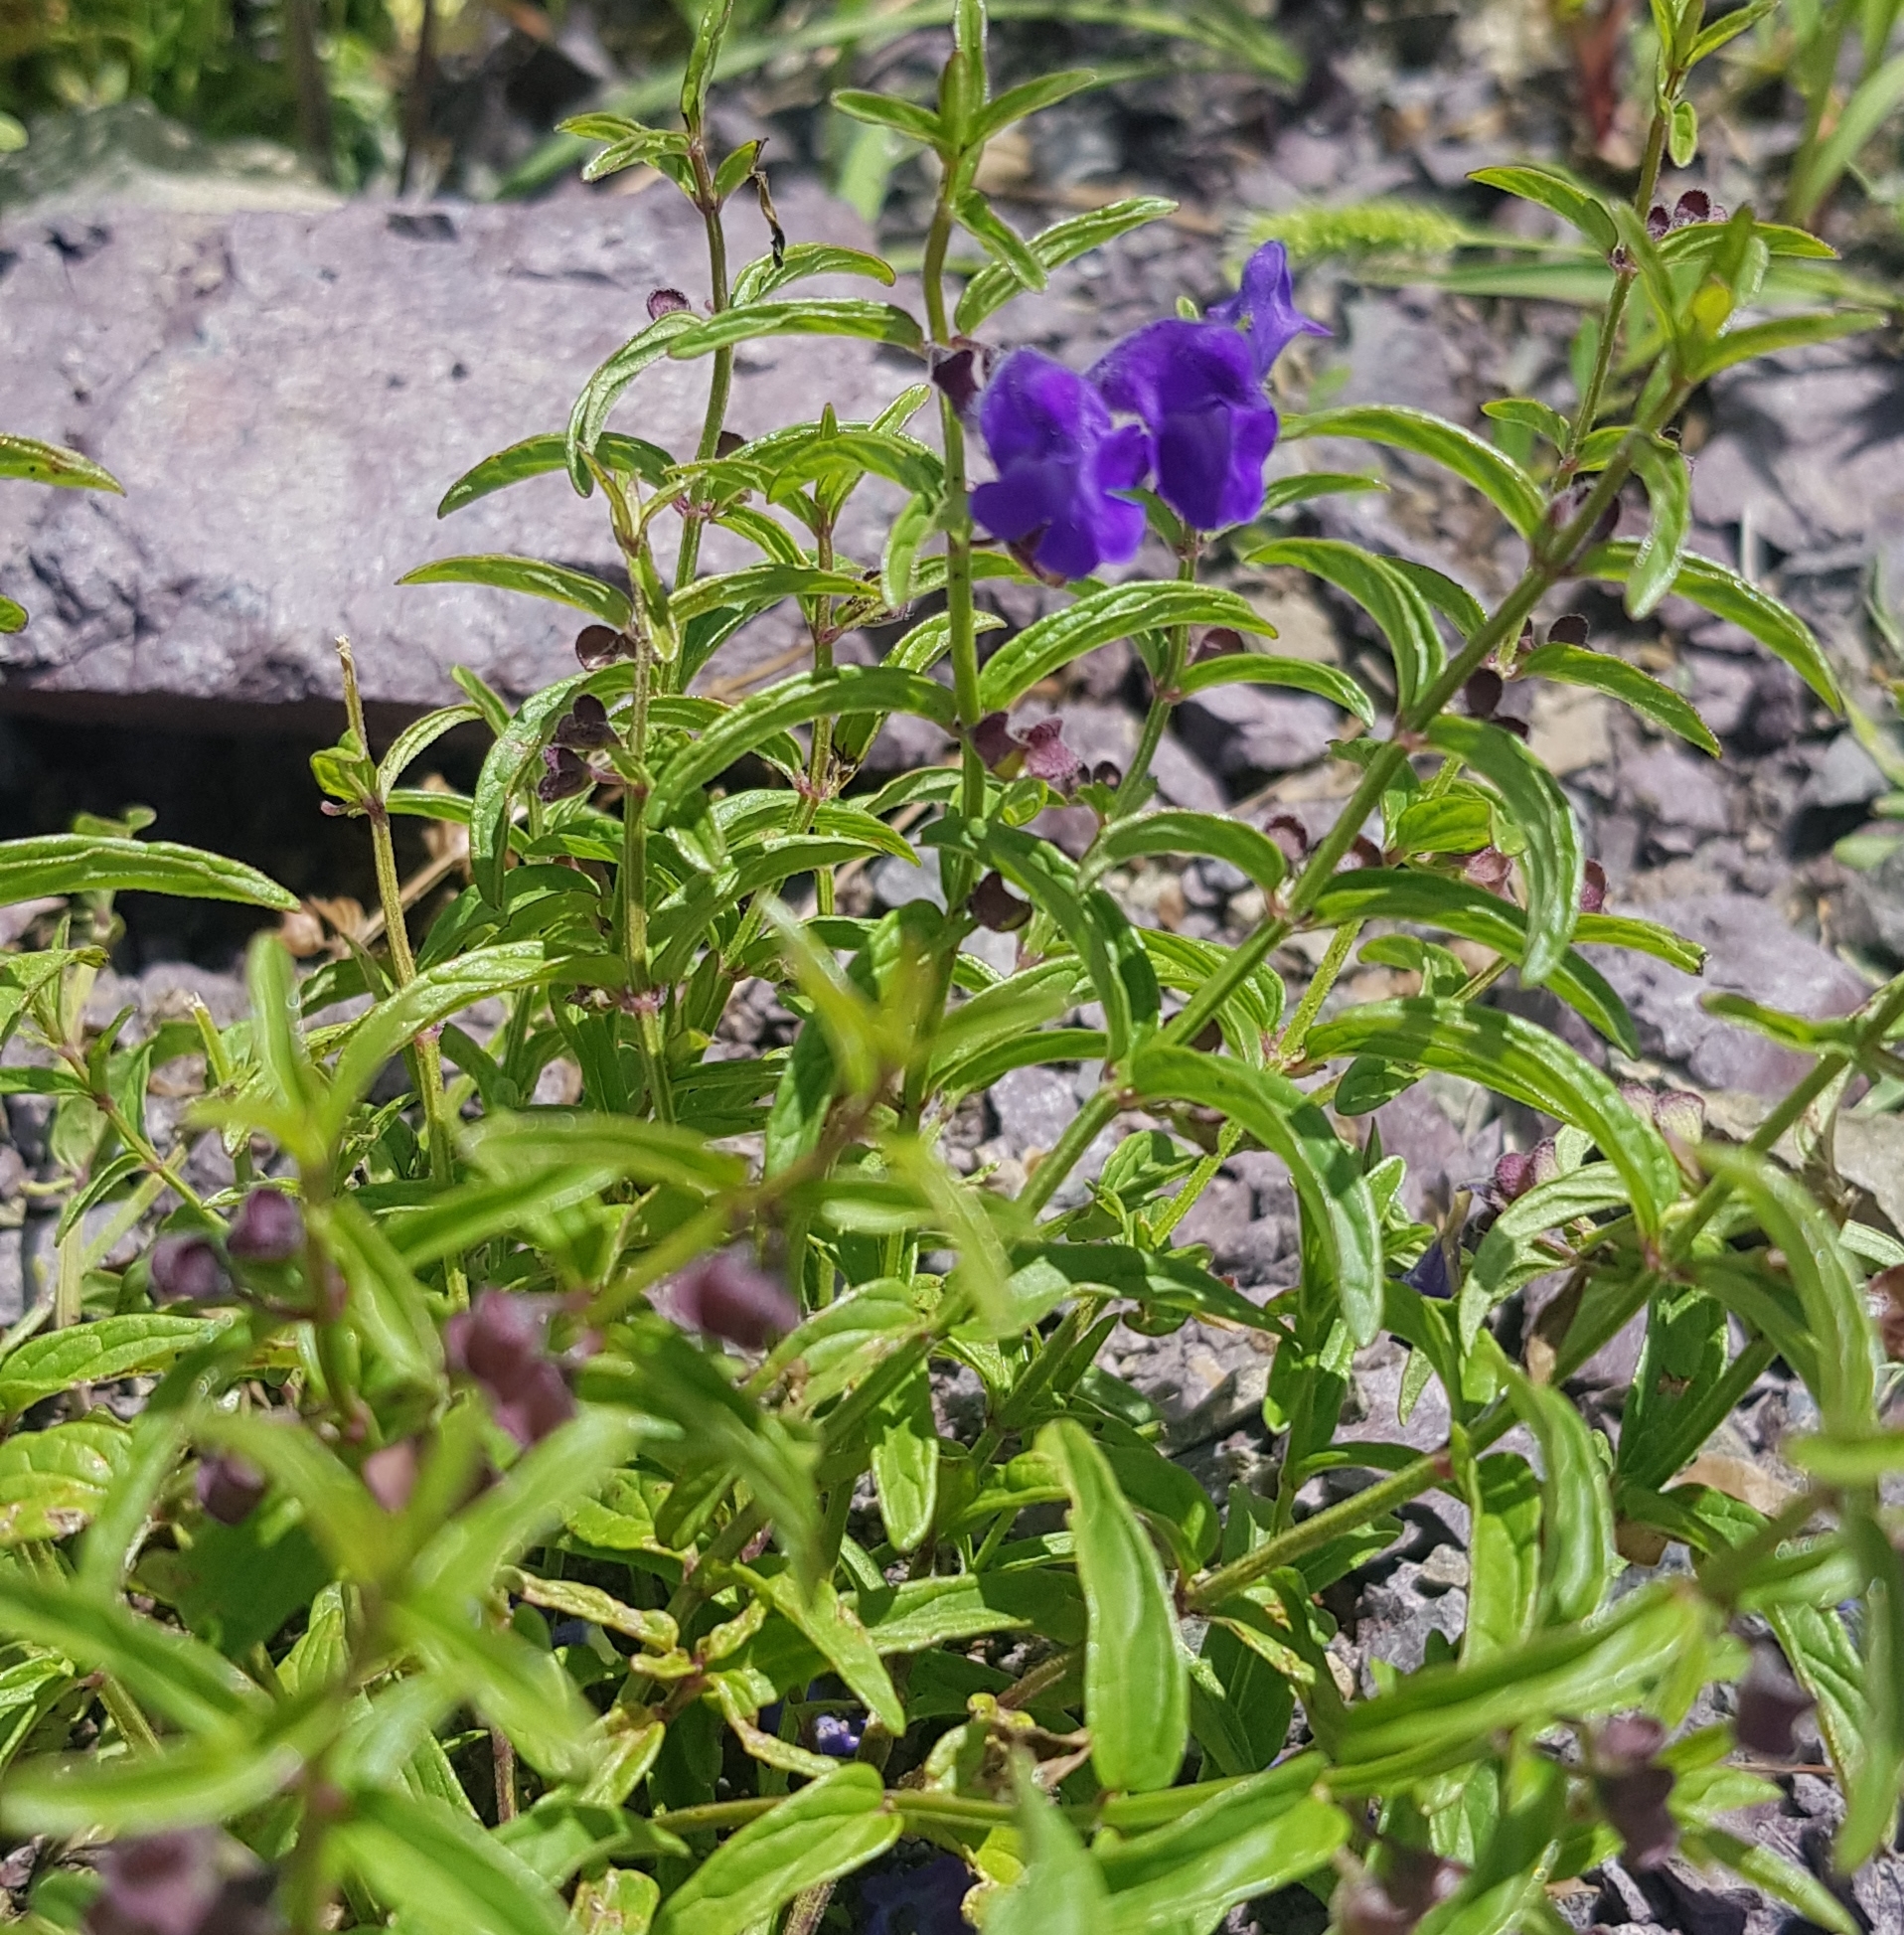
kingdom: Plantae
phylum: Tracheophyta
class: Magnoliopsida
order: Lamiales
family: Lamiaceae
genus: Scutellaria
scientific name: Scutellaria scordiifolia
